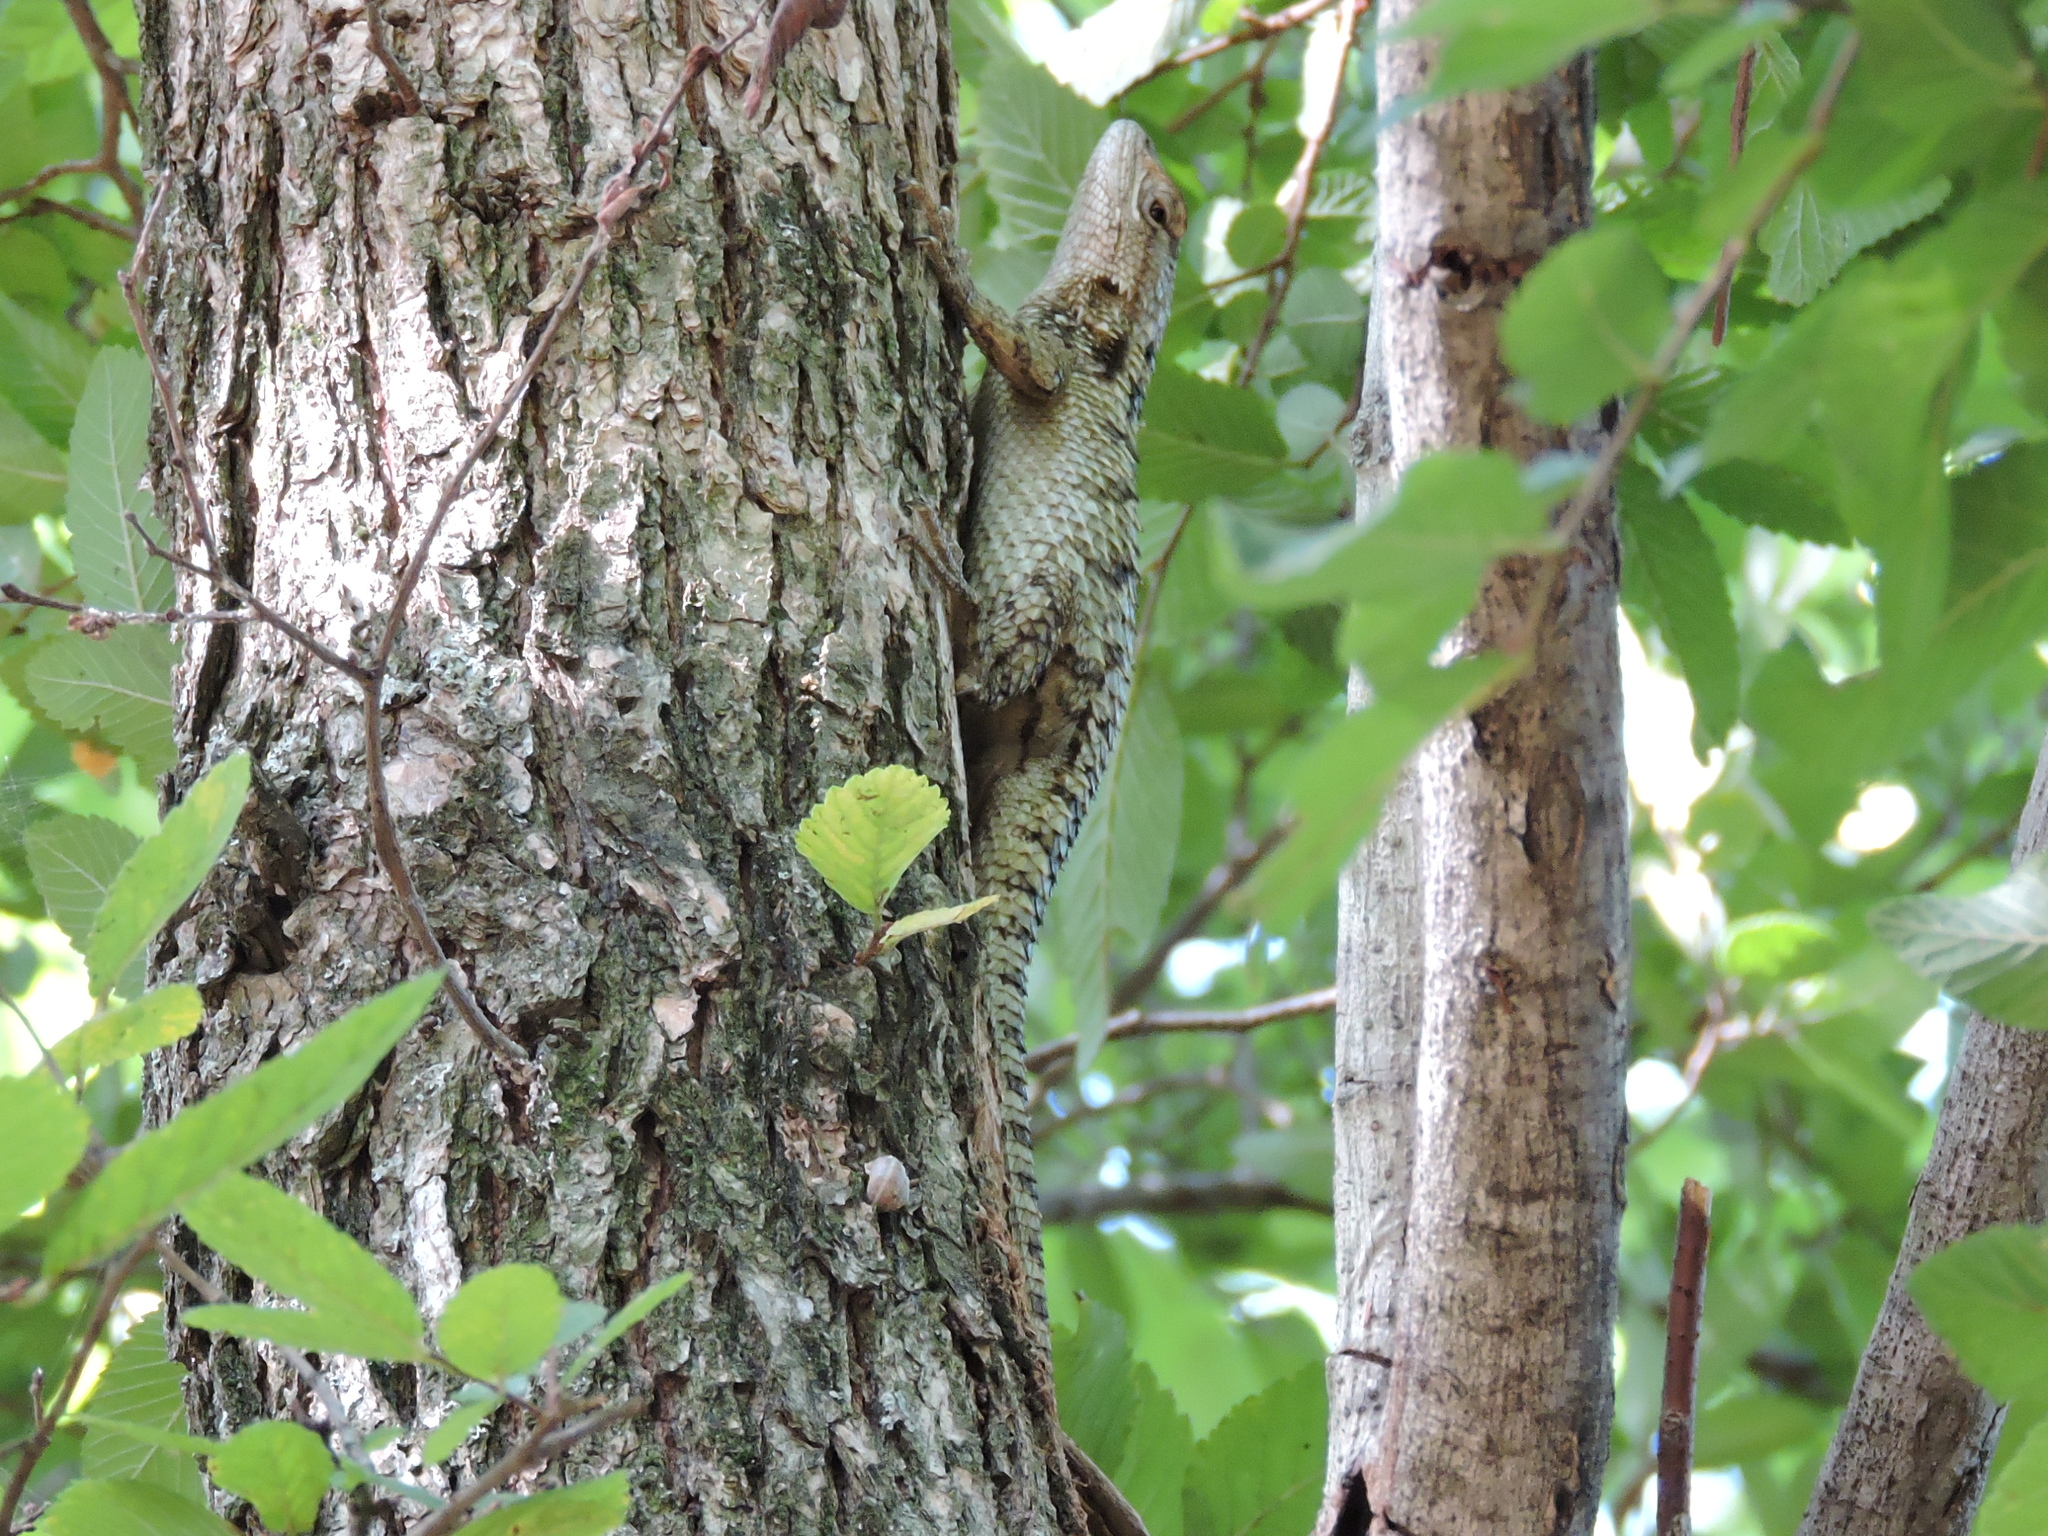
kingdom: Animalia
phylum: Chordata
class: Squamata
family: Phrynosomatidae
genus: Sceloporus
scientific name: Sceloporus olivaceus
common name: Texas spiny lizard
